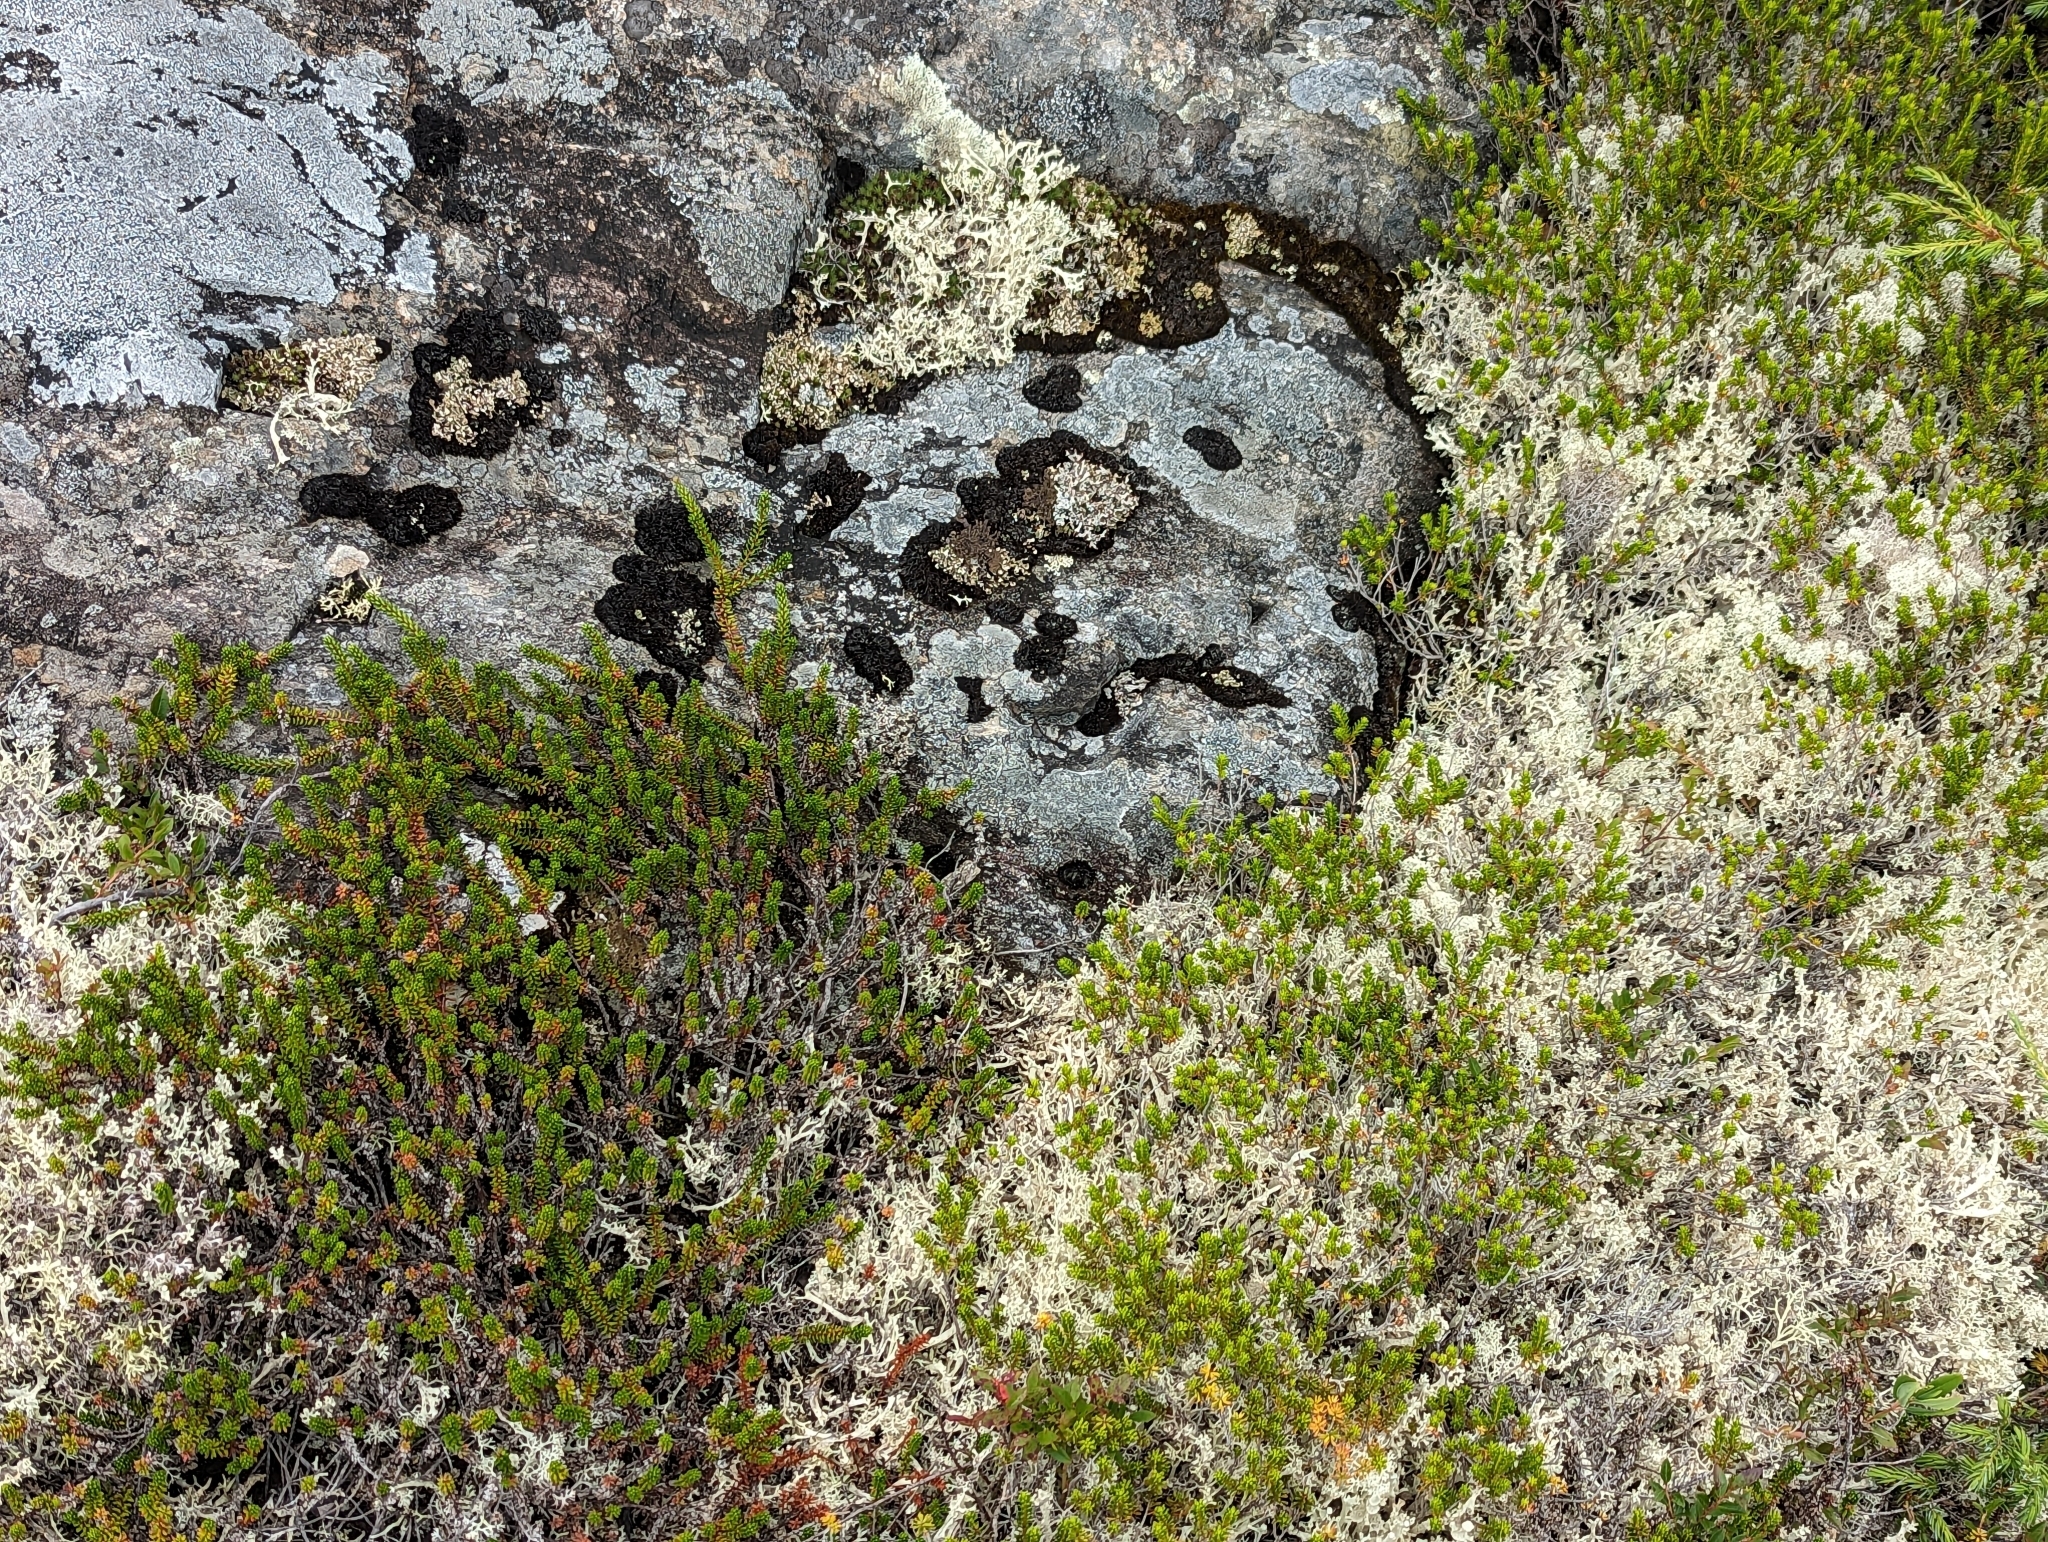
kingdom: Plantae
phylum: Tracheophyta
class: Magnoliopsida
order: Ericales
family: Ericaceae
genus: Corema
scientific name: Corema conradii
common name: Broom-crowberry
